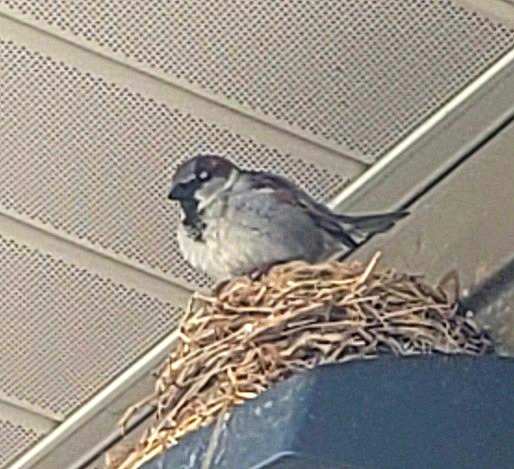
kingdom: Animalia
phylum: Chordata
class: Aves
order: Passeriformes
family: Passeridae
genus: Passer
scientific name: Passer domesticus
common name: House sparrow
